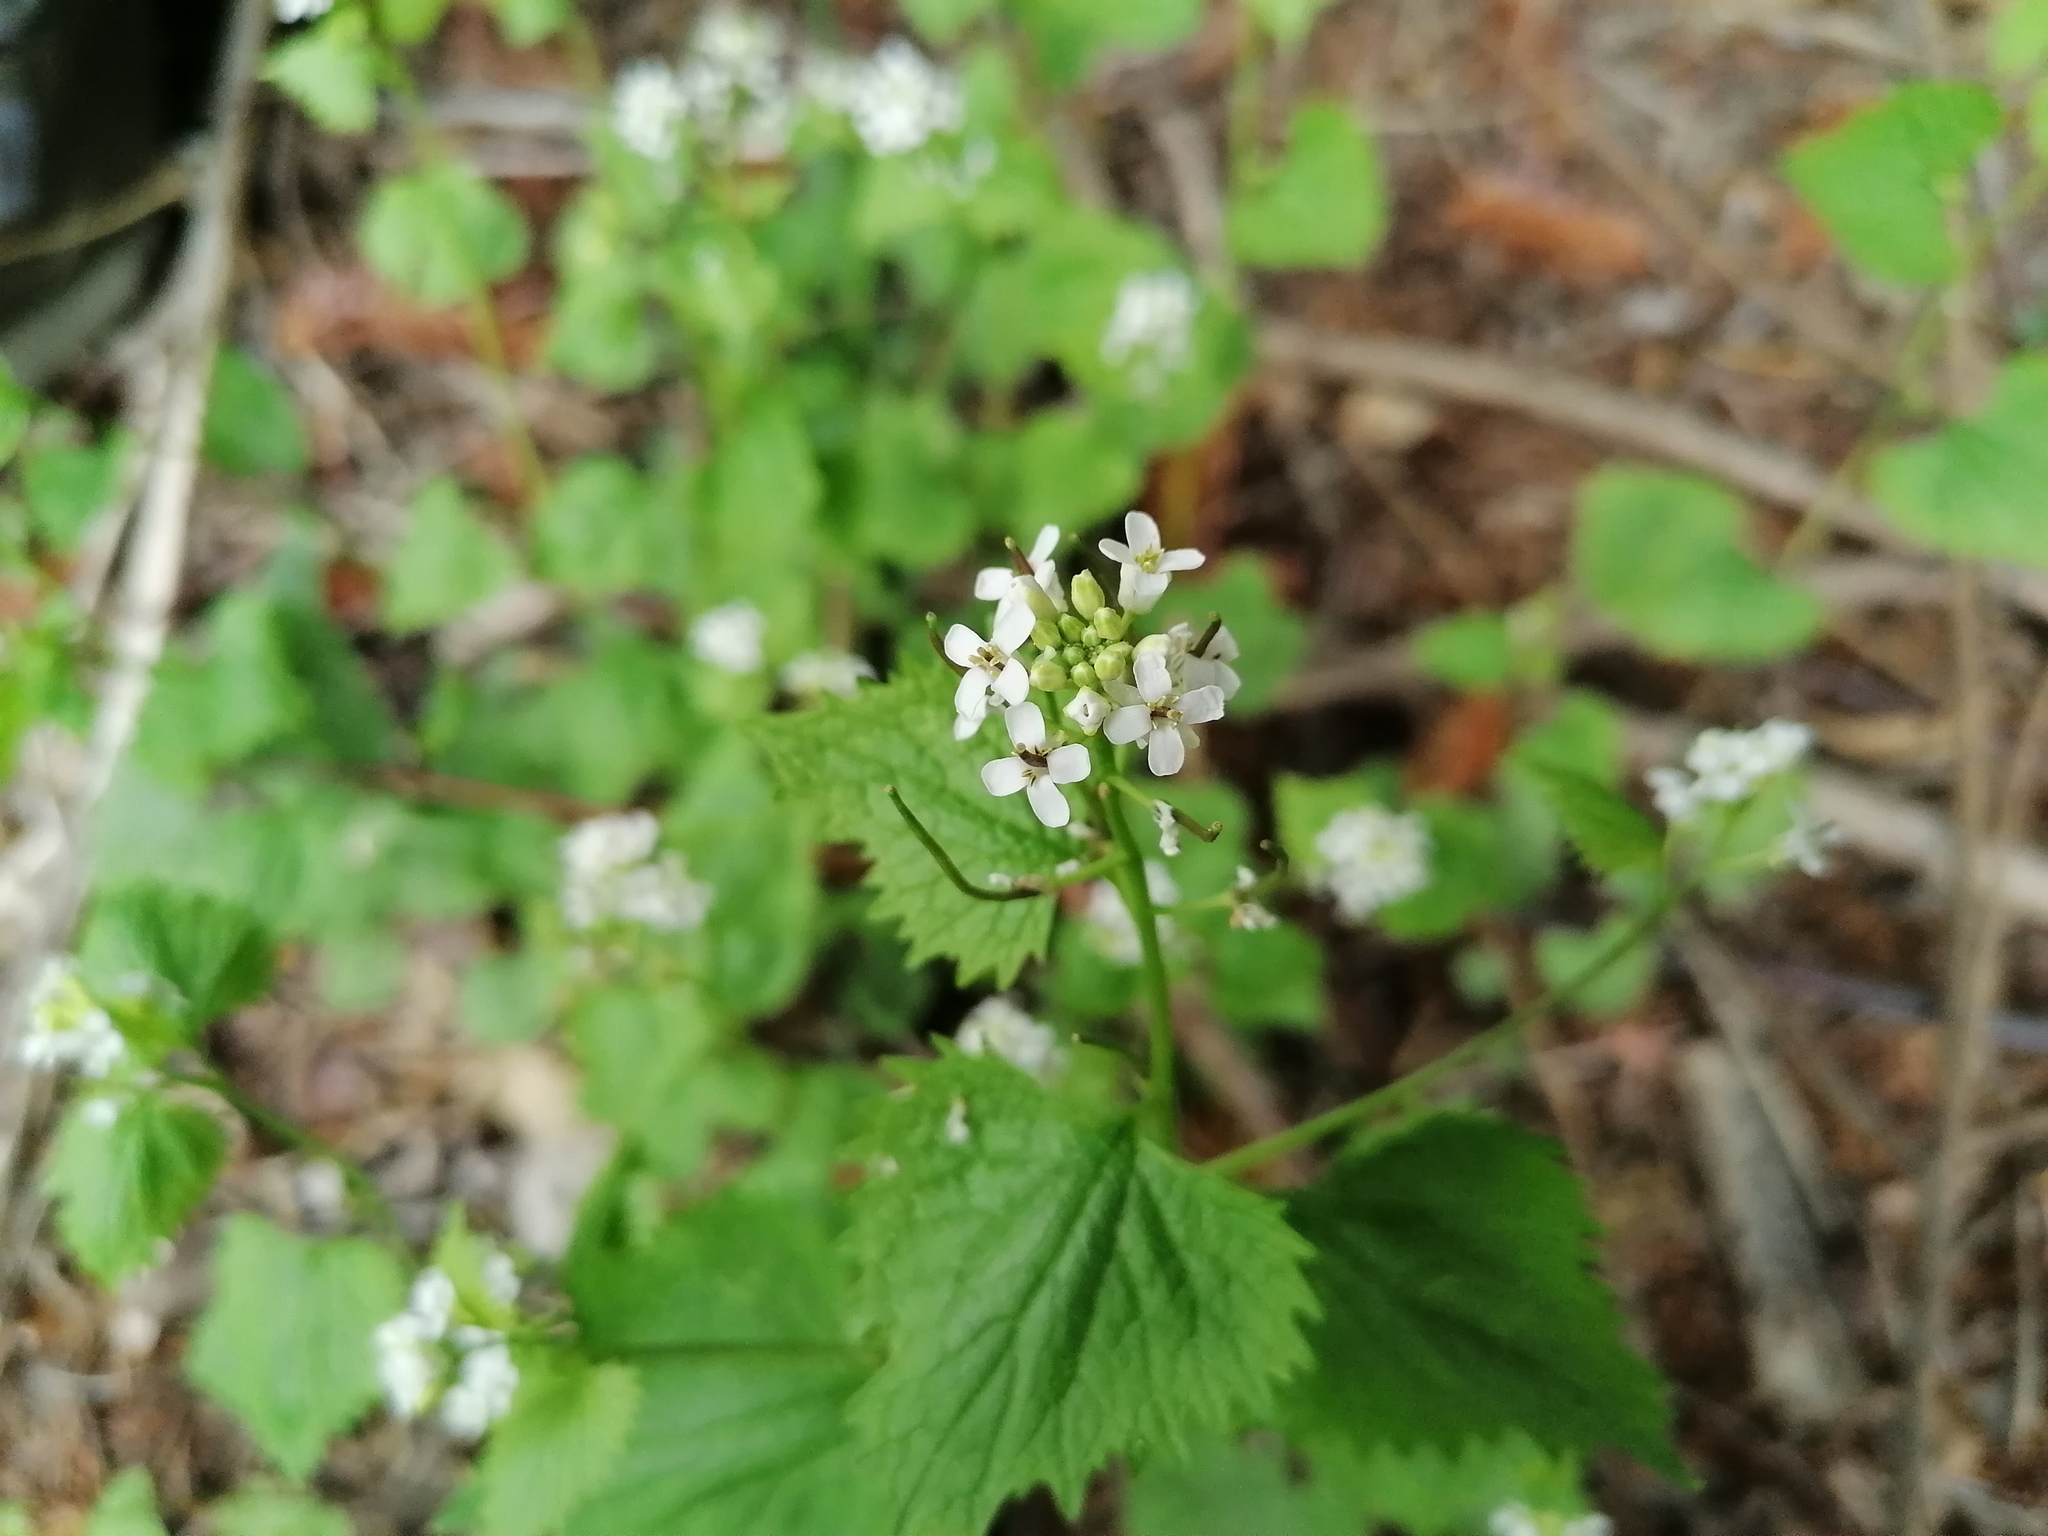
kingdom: Plantae
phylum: Tracheophyta
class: Magnoliopsida
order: Brassicales
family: Brassicaceae
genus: Alliaria
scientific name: Alliaria petiolata
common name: Garlic mustard
